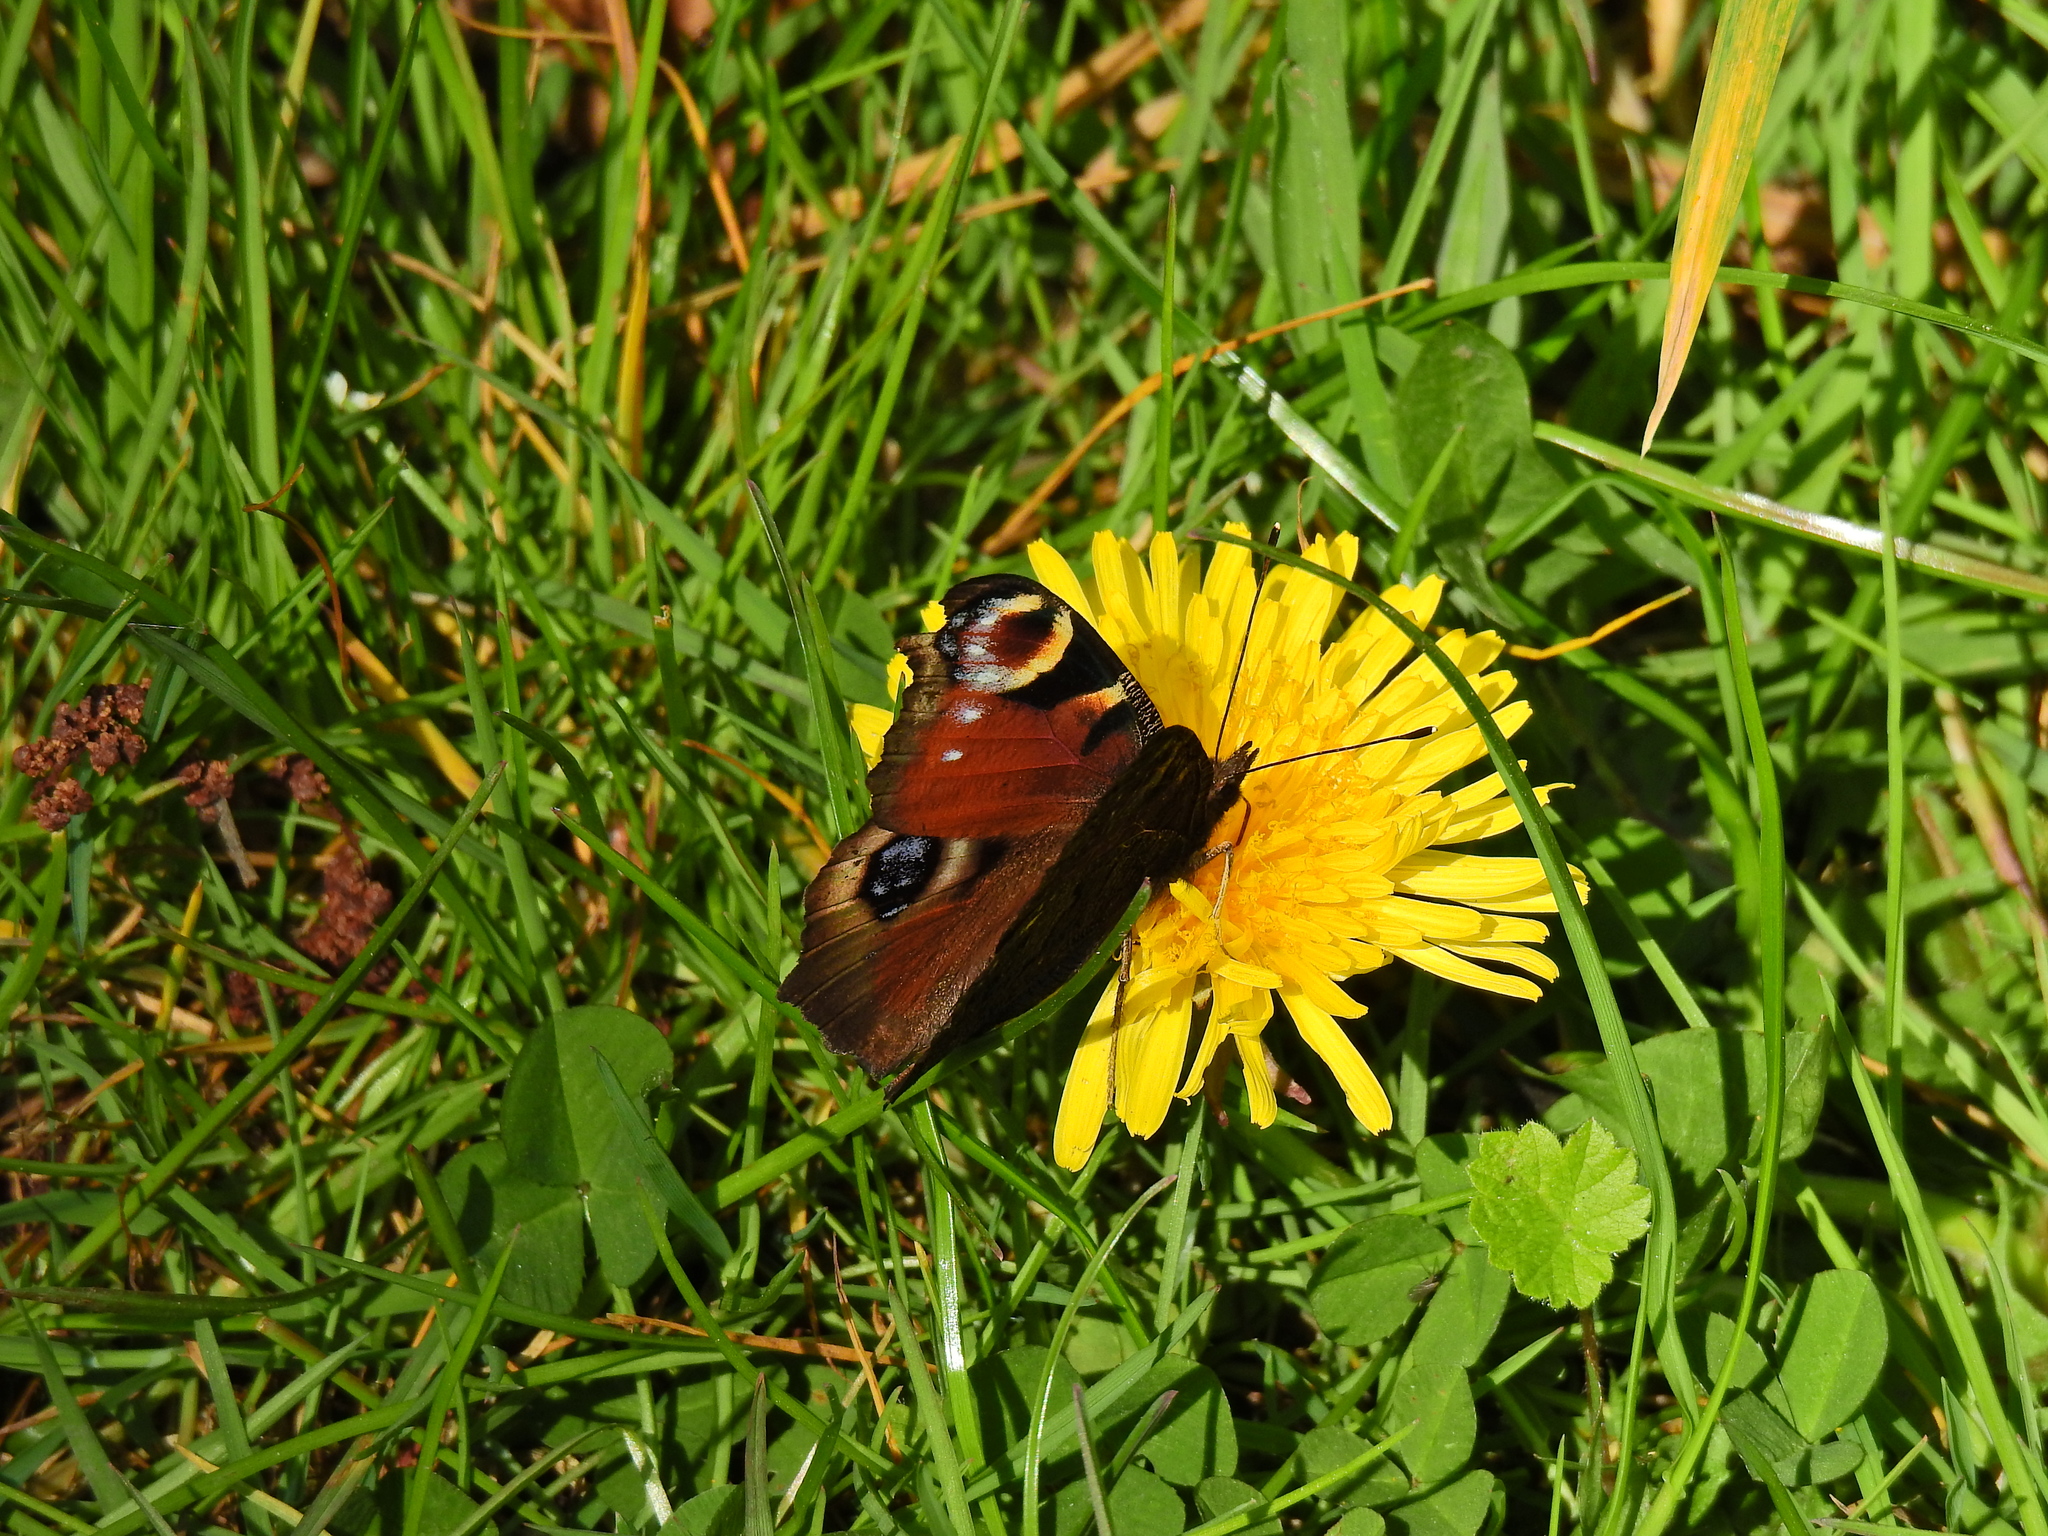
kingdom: Animalia
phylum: Arthropoda
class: Insecta
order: Lepidoptera
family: Nymphalidae
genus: Aglais
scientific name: Aglais io
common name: Peacock
